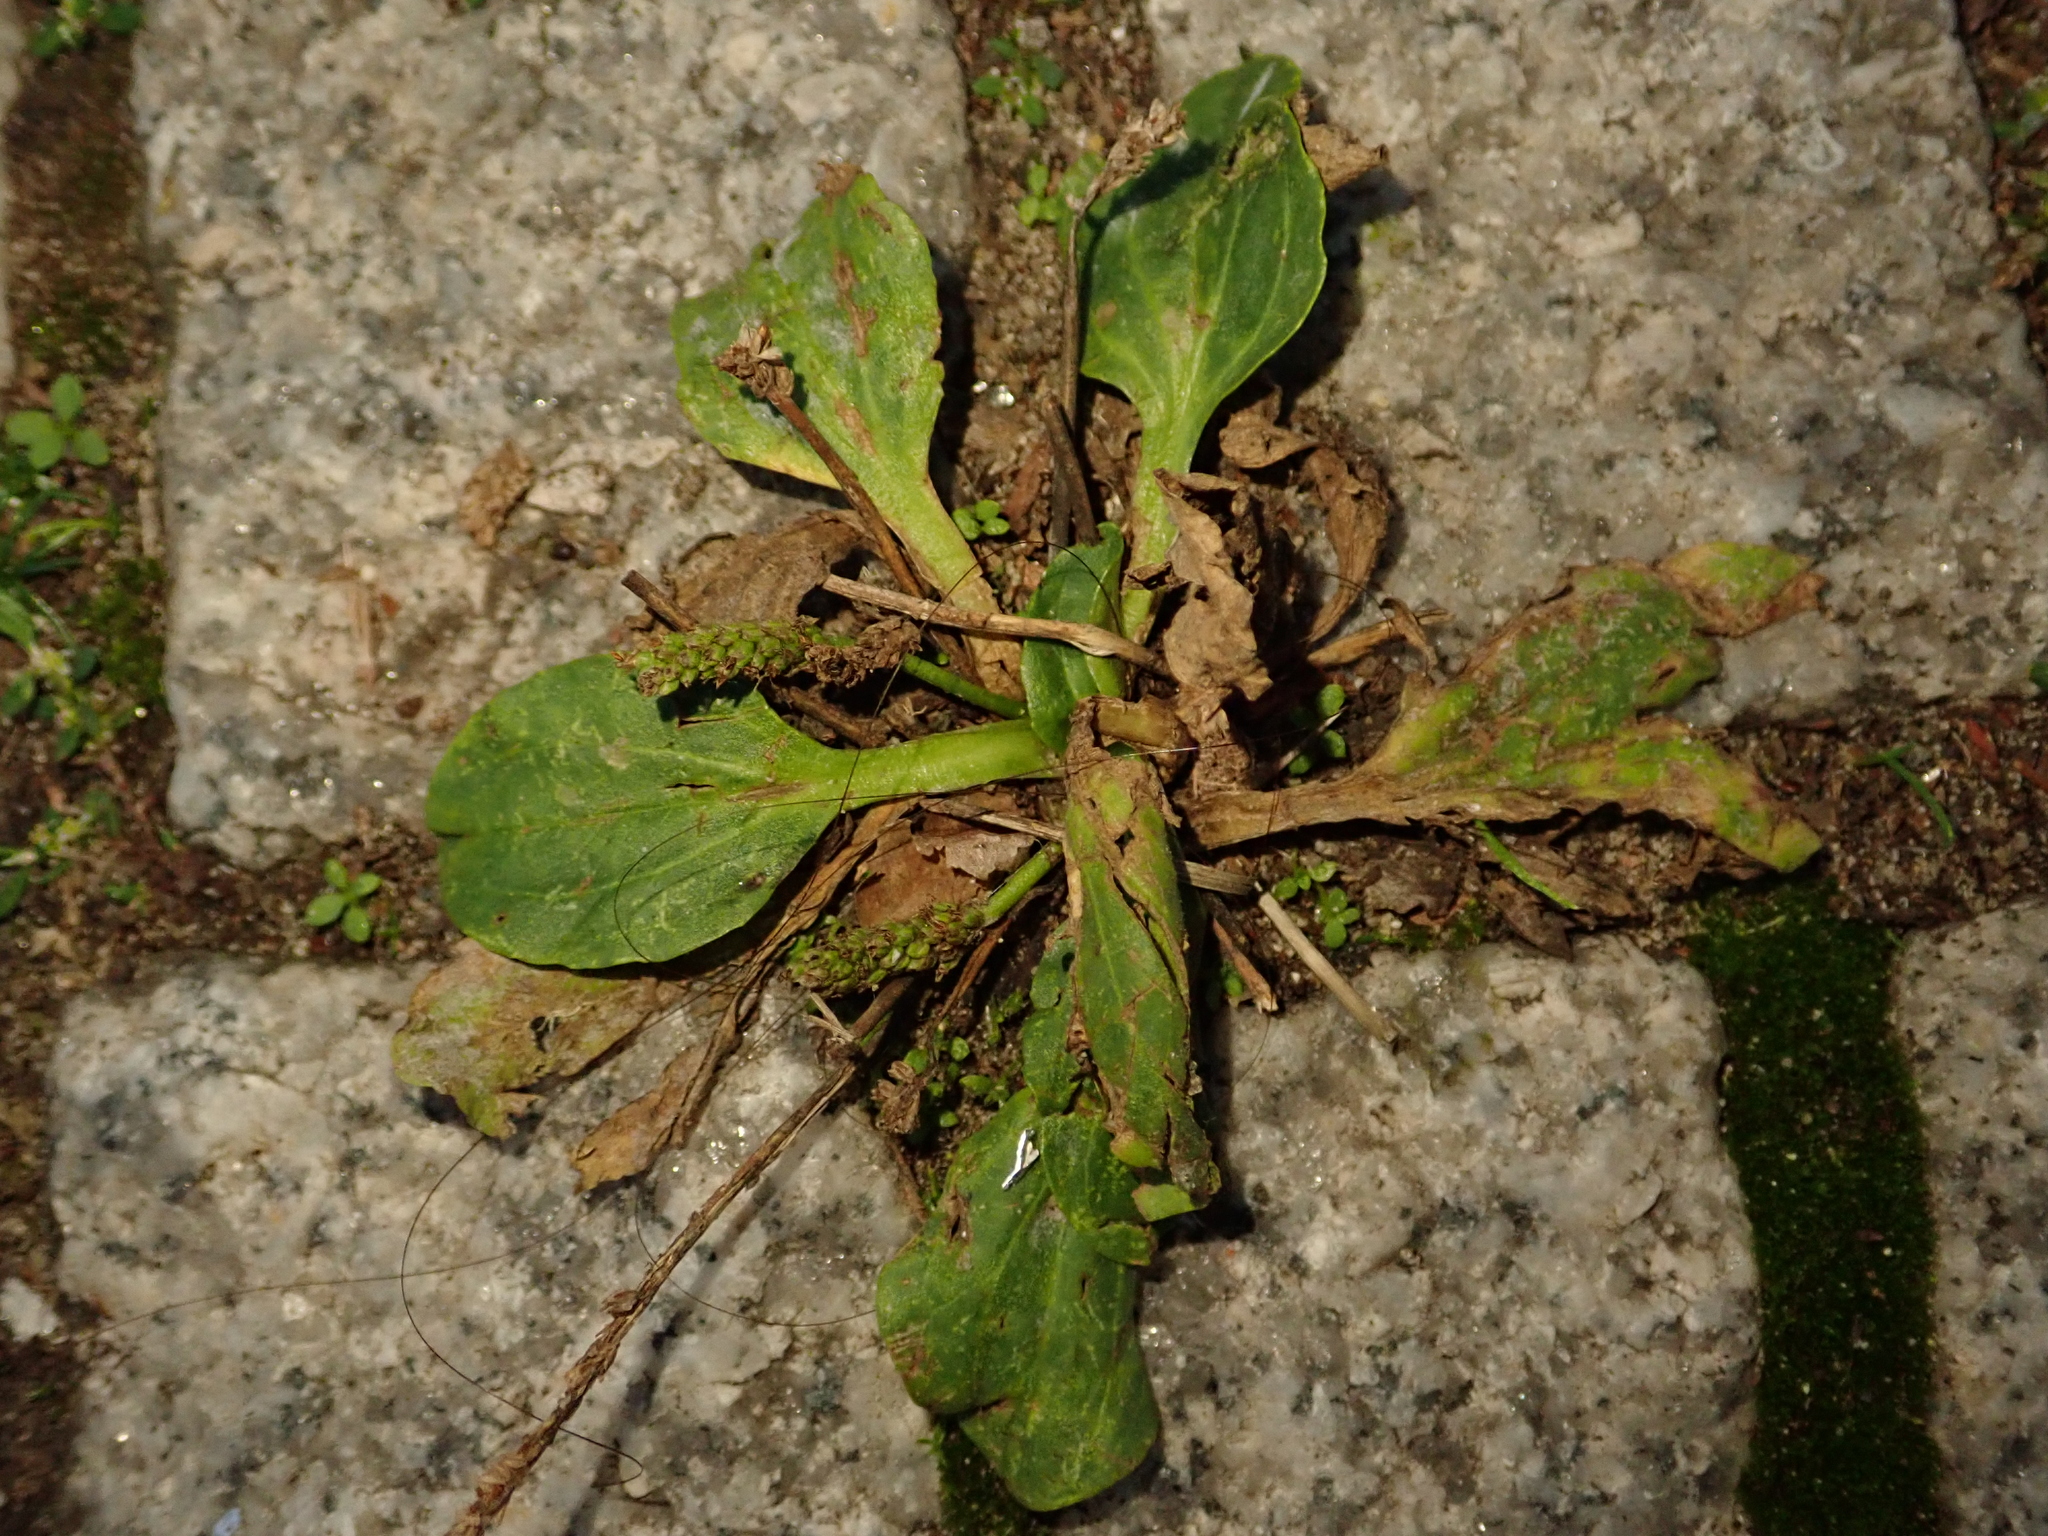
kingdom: Plantae
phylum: Tracheophyta
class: Magnoliopsida
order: Lamiales
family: Plantaginaceae
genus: Plantago
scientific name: Plantago major
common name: Common plantain
